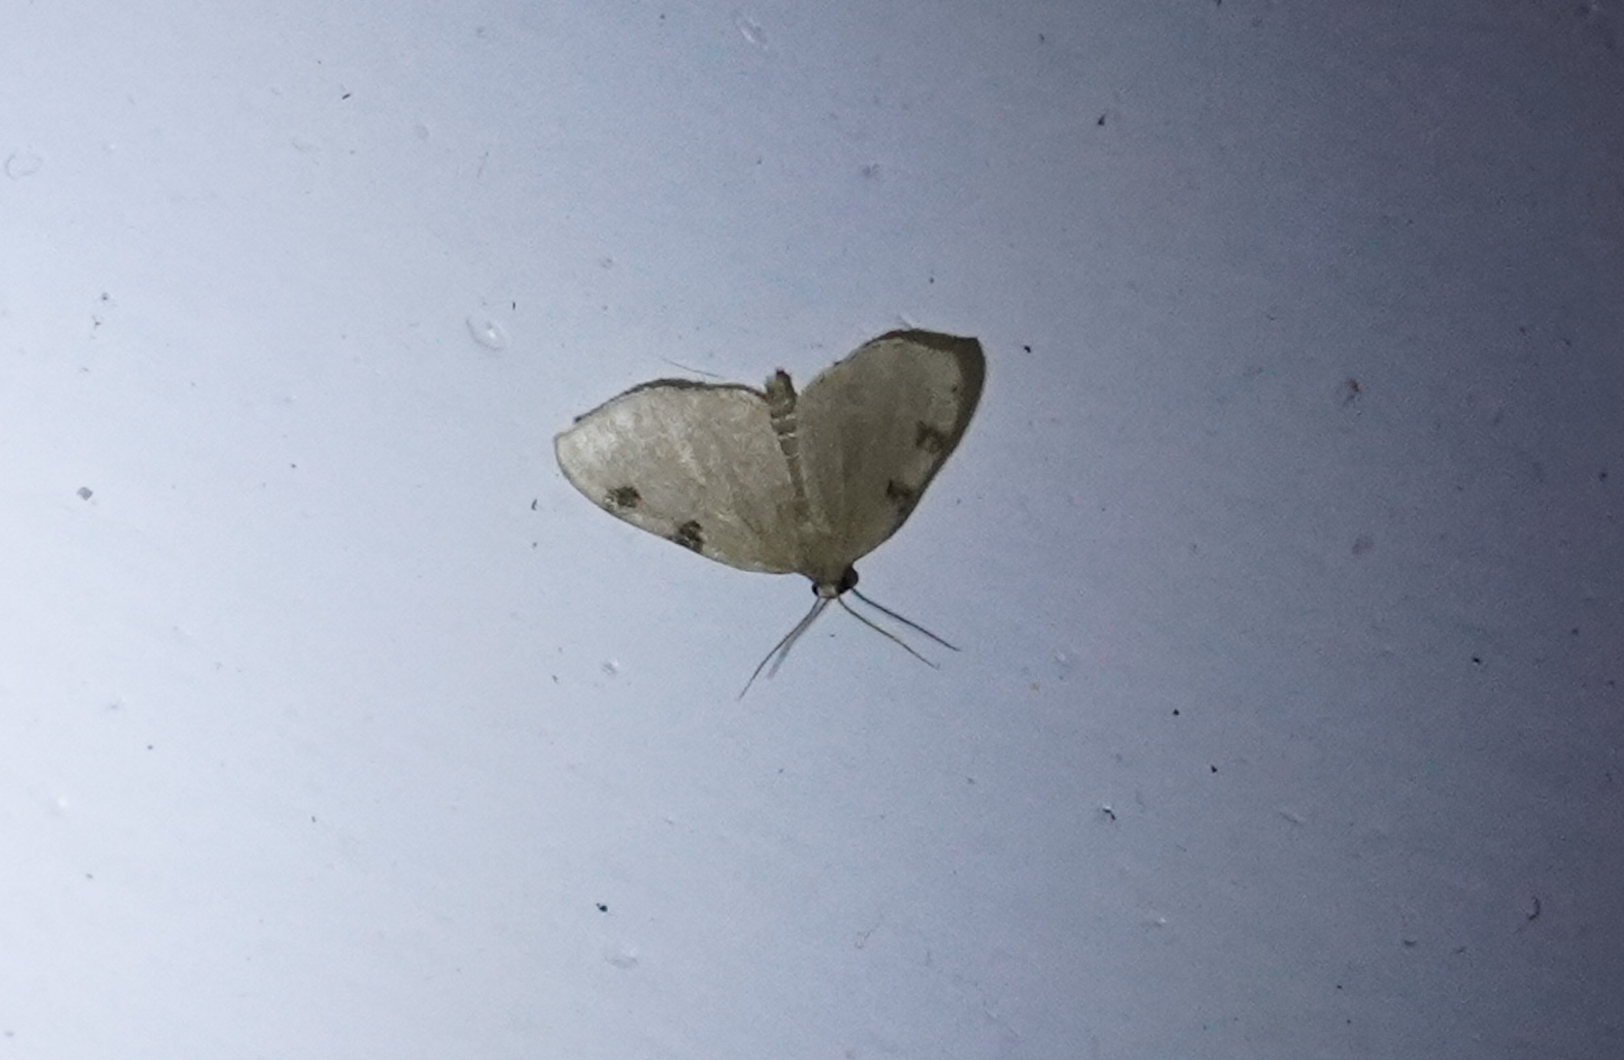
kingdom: Animalia
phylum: Arthropoda
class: Insecta
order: Lepidoptera
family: Geometridae
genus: Heterophleps
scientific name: Heterophleps triguttaria
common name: Three-spotted fillip
